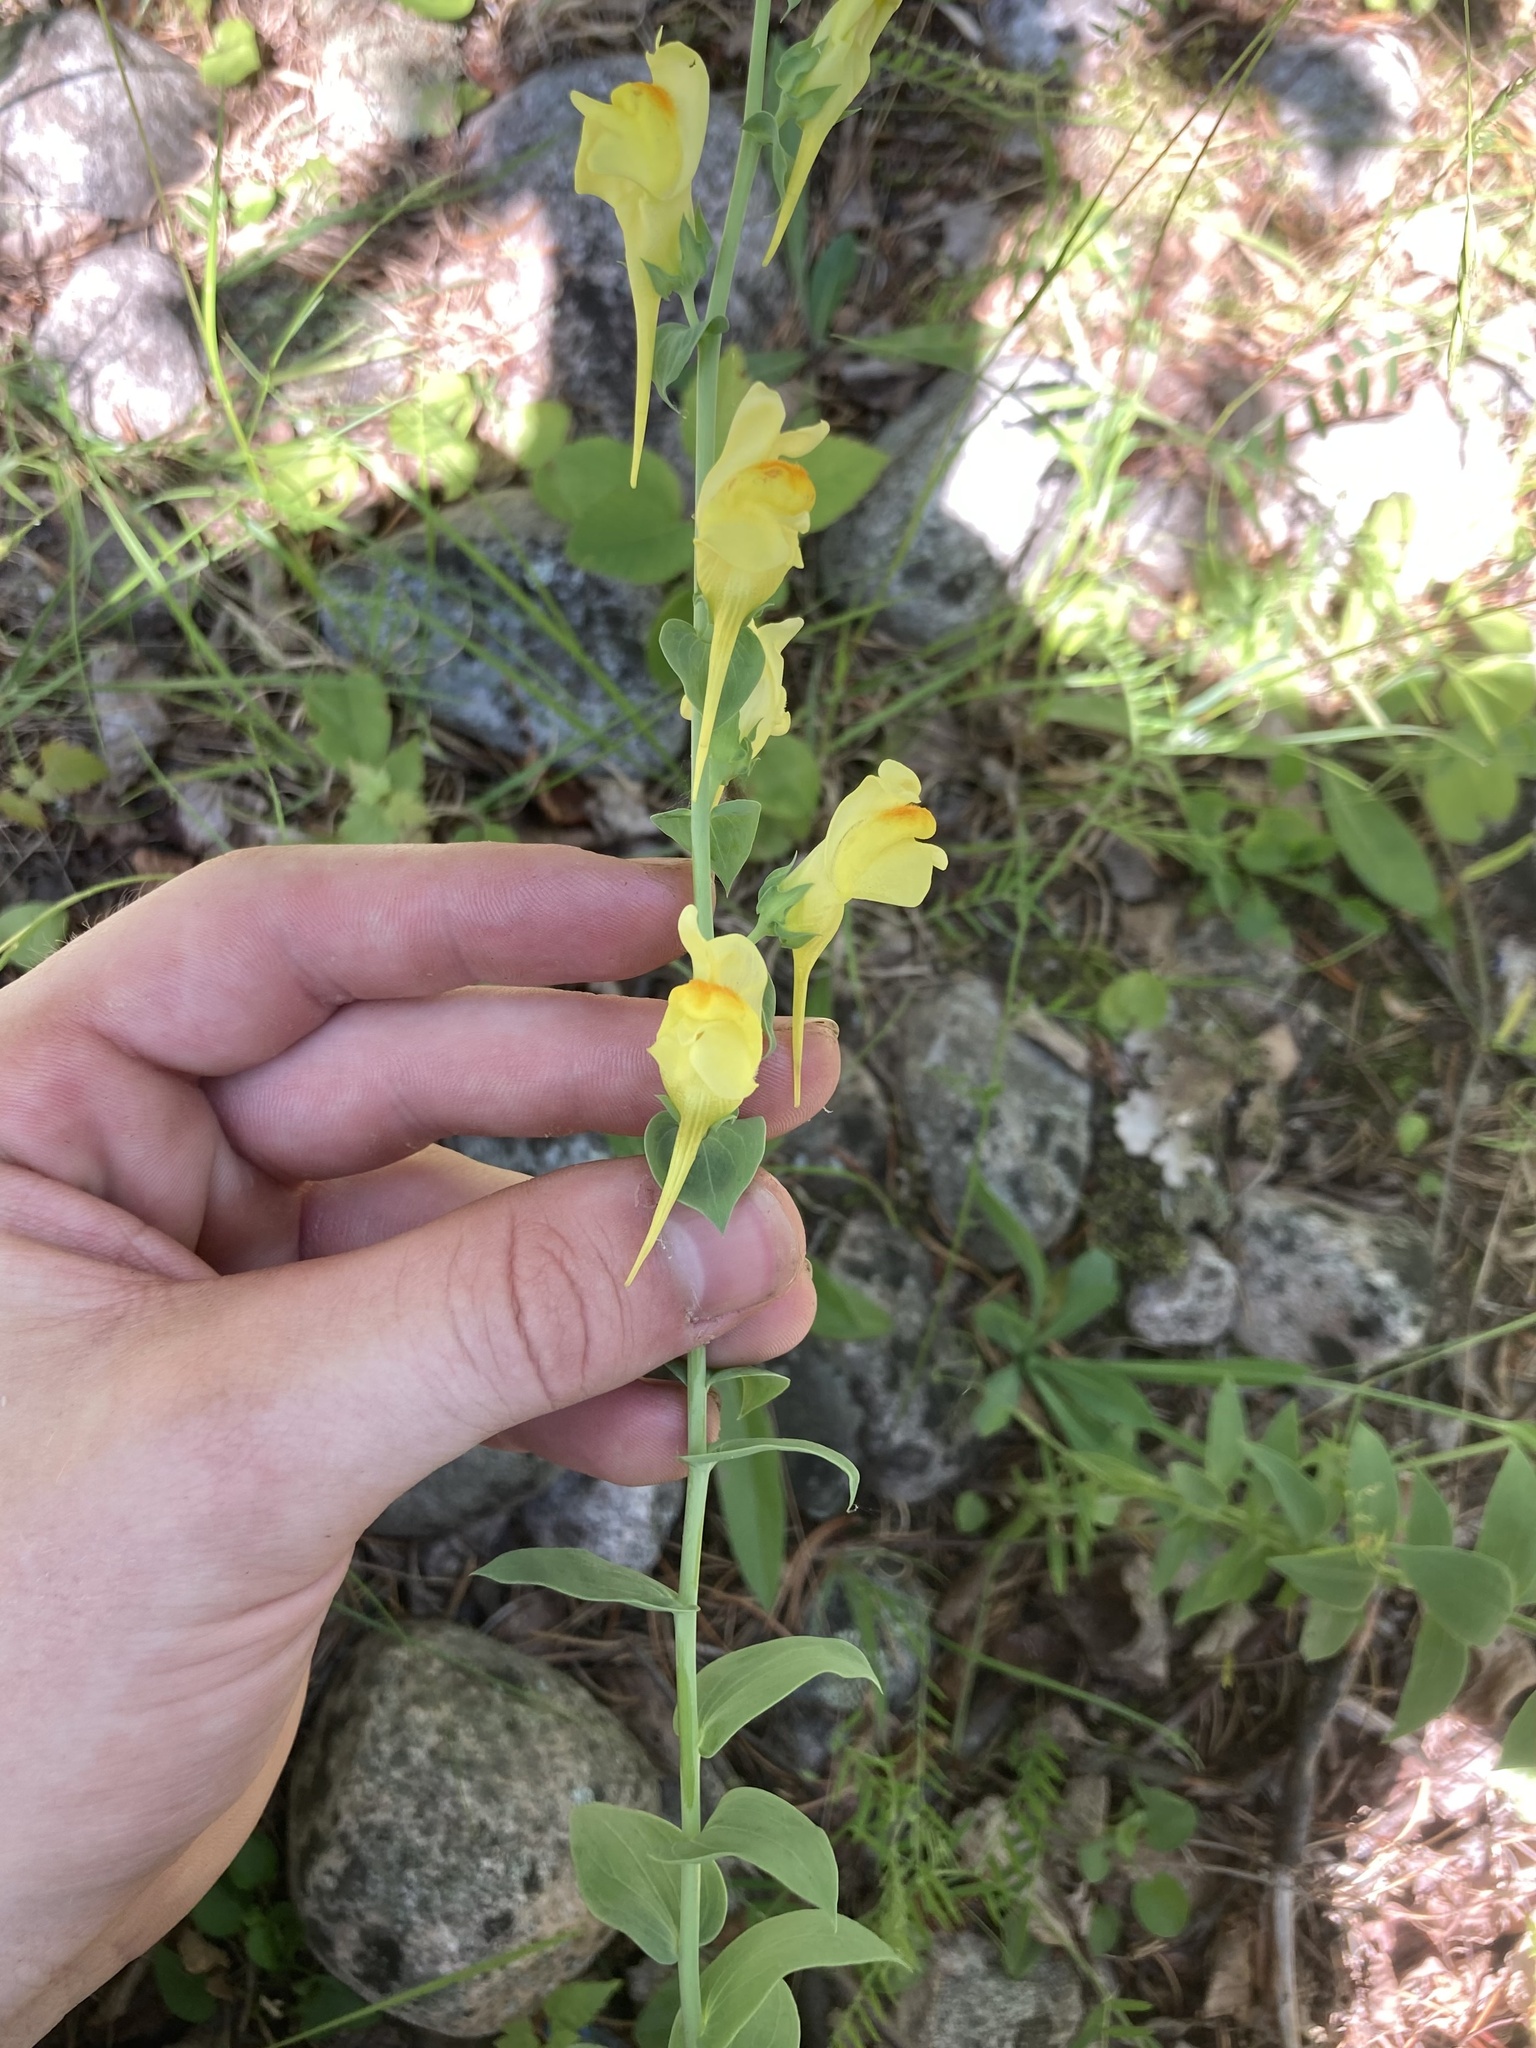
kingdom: Plantae
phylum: Tracheophyta
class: Magnoliopsida
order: Lamiales
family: Plantaginaceae
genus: Linaria
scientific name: Linaria dalmatica
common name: Dalmatian toadflax
